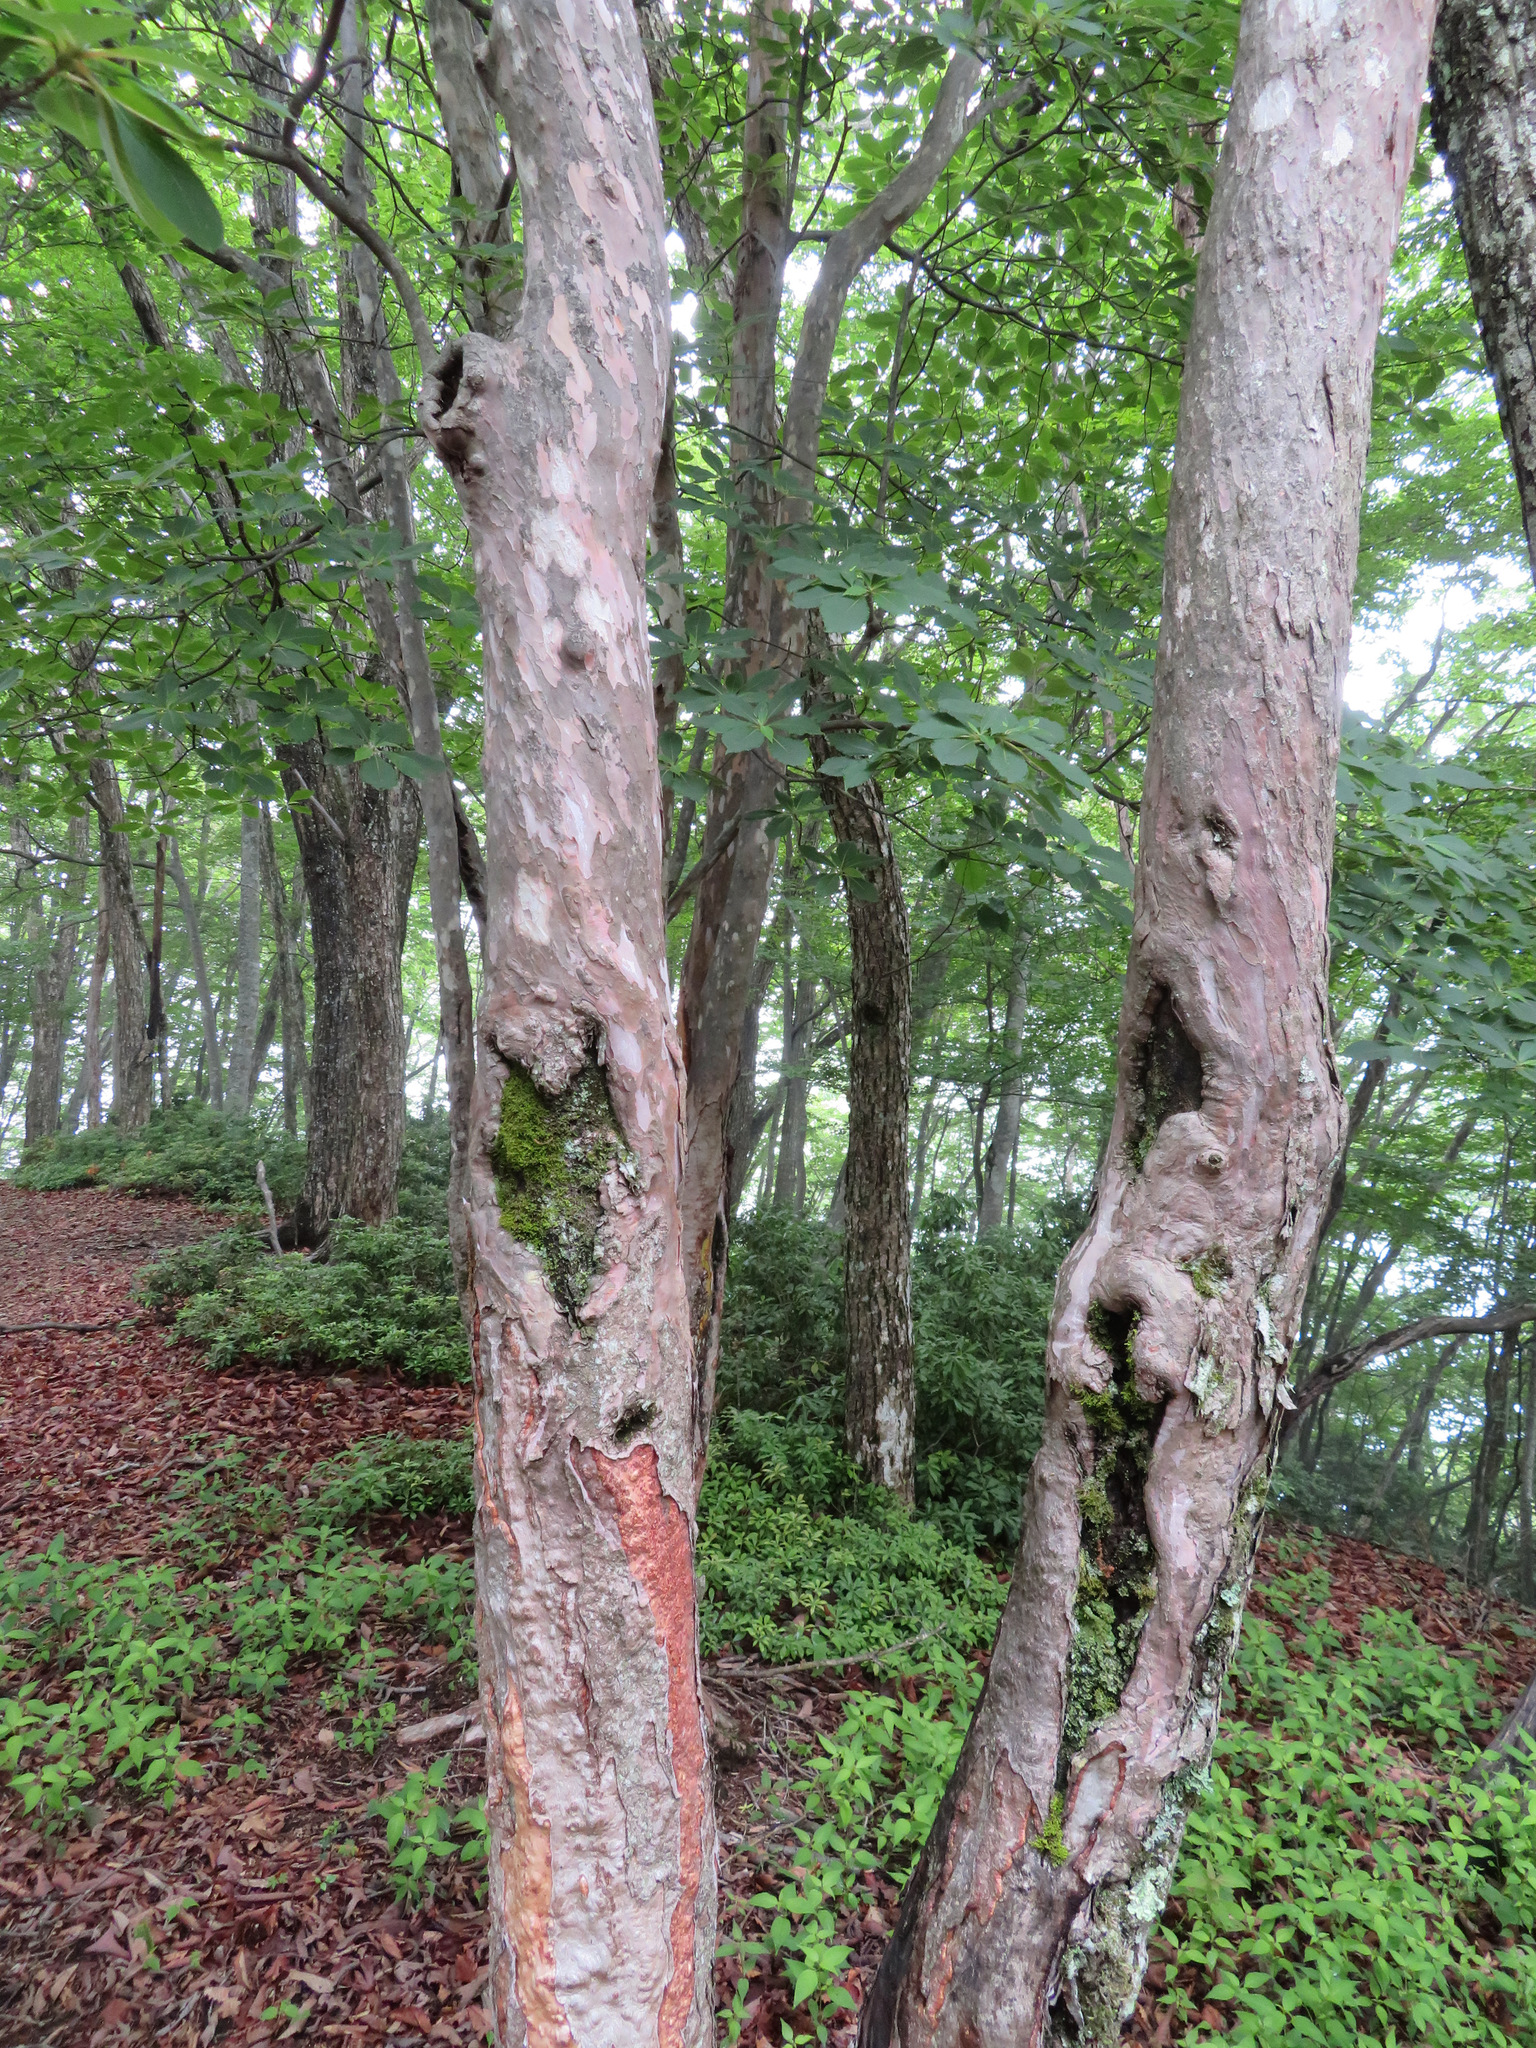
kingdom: Plantae
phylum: Tracheophyta
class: Magnoliopsida
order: Ericales
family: Clethraceae
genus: Clethra
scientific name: Clethra barbinervis
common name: Japanese clethra
